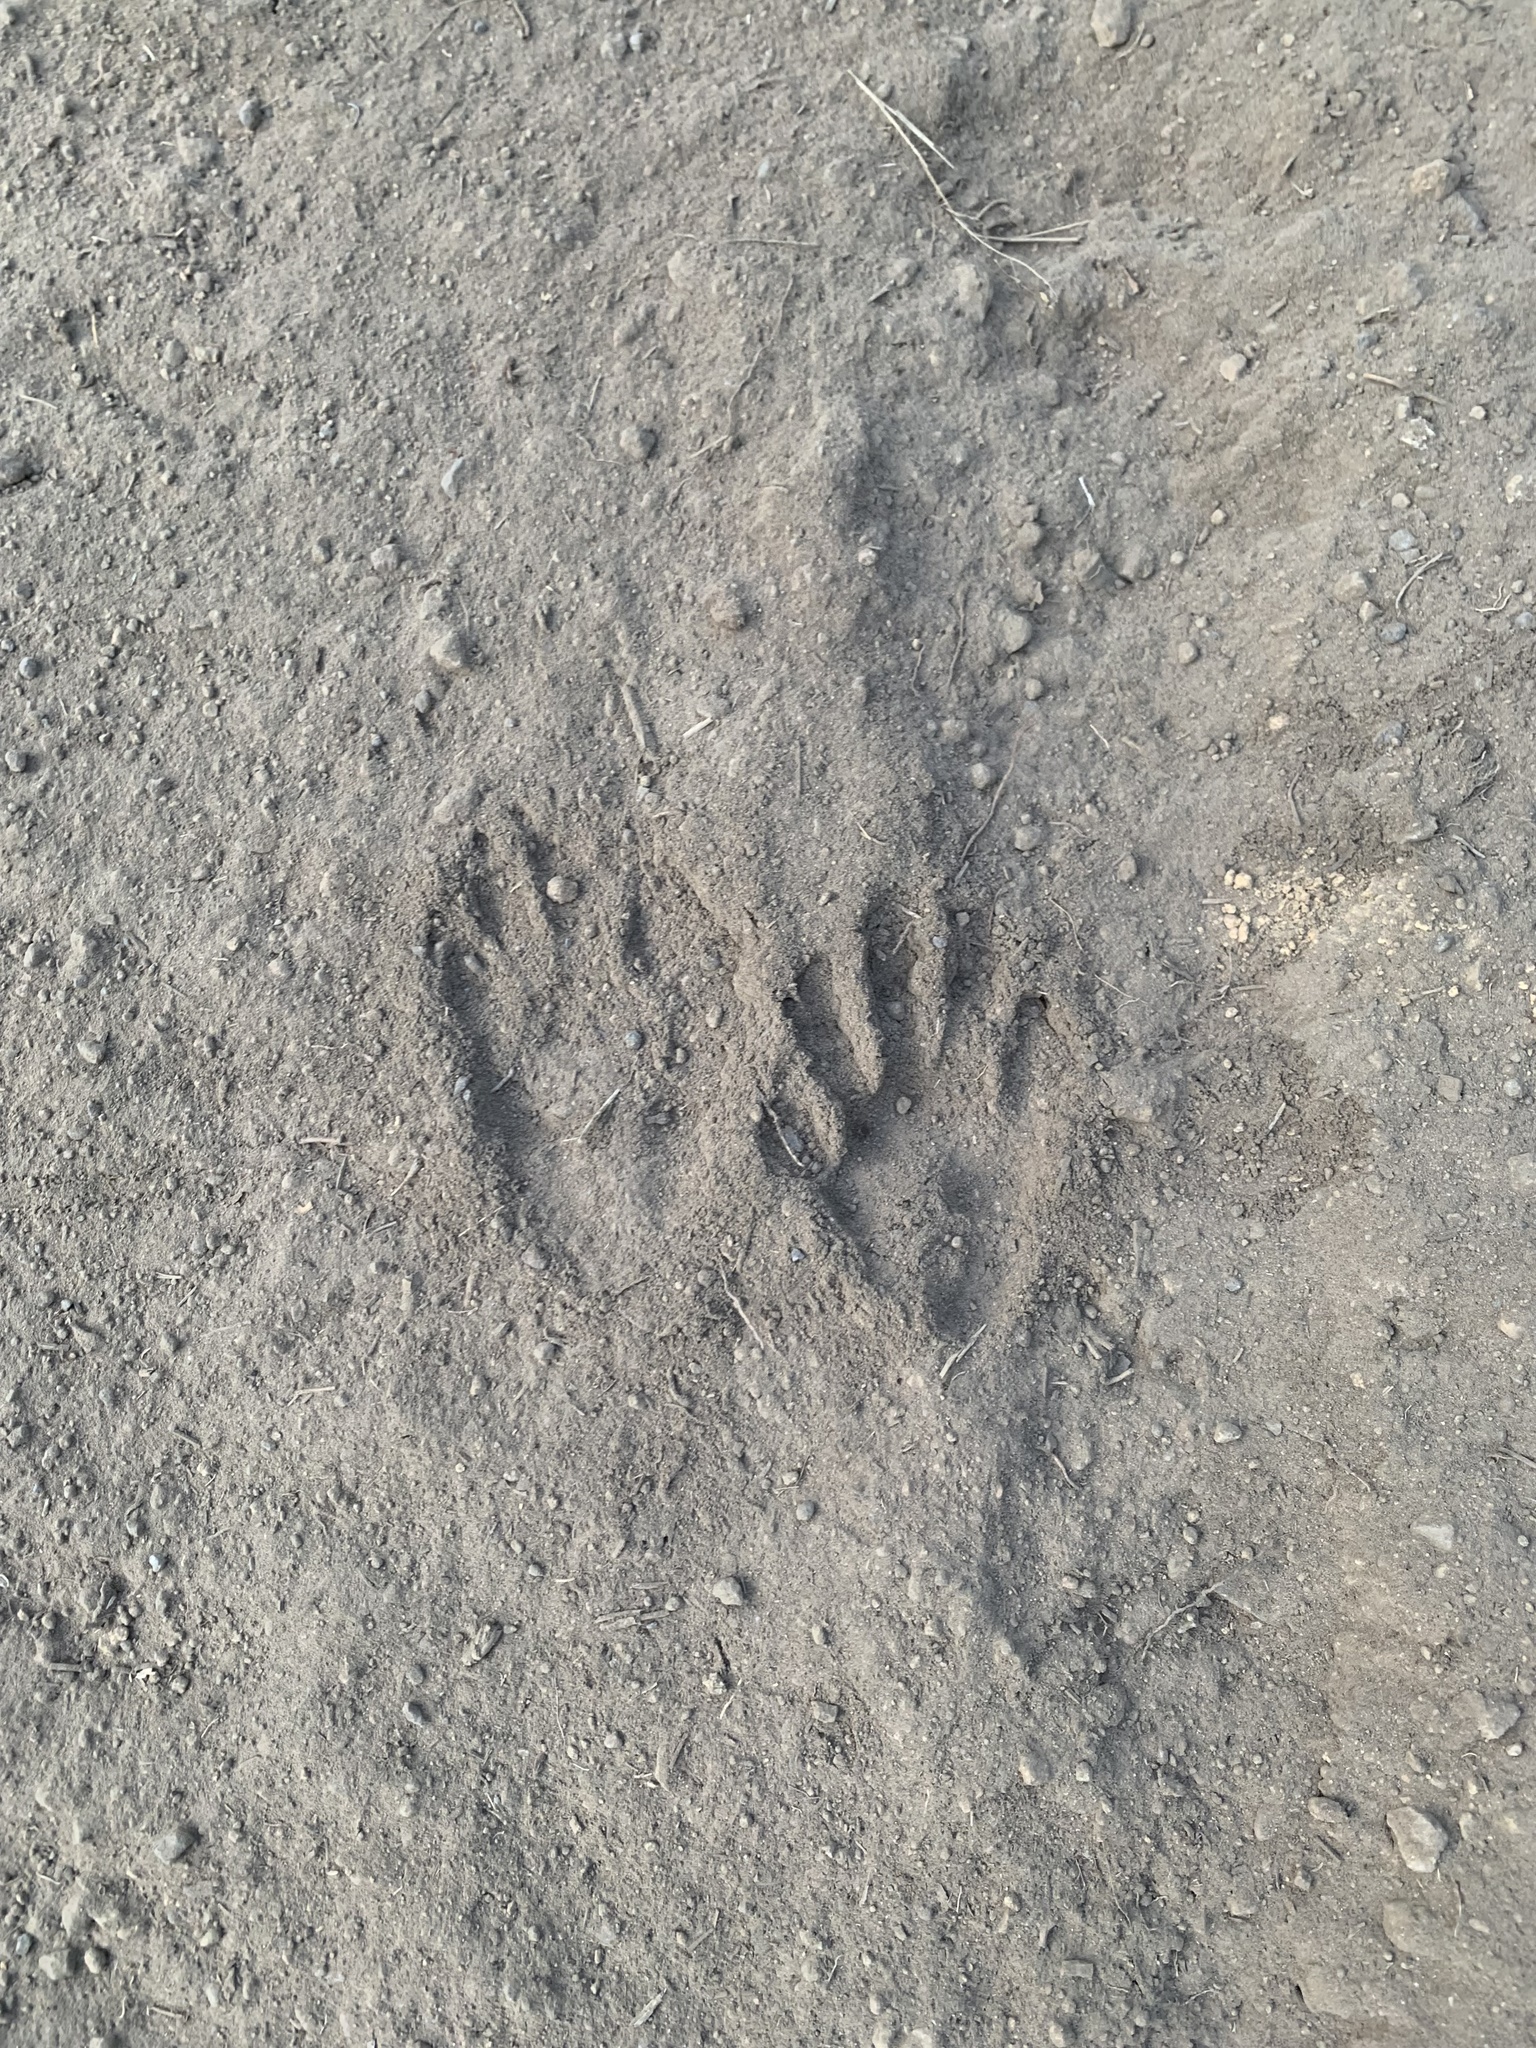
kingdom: Animalia
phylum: Chordata
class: Mammalia
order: Carnivora
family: Procyonidae
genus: Procyon
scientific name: Procyon lotor
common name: Raccoon
